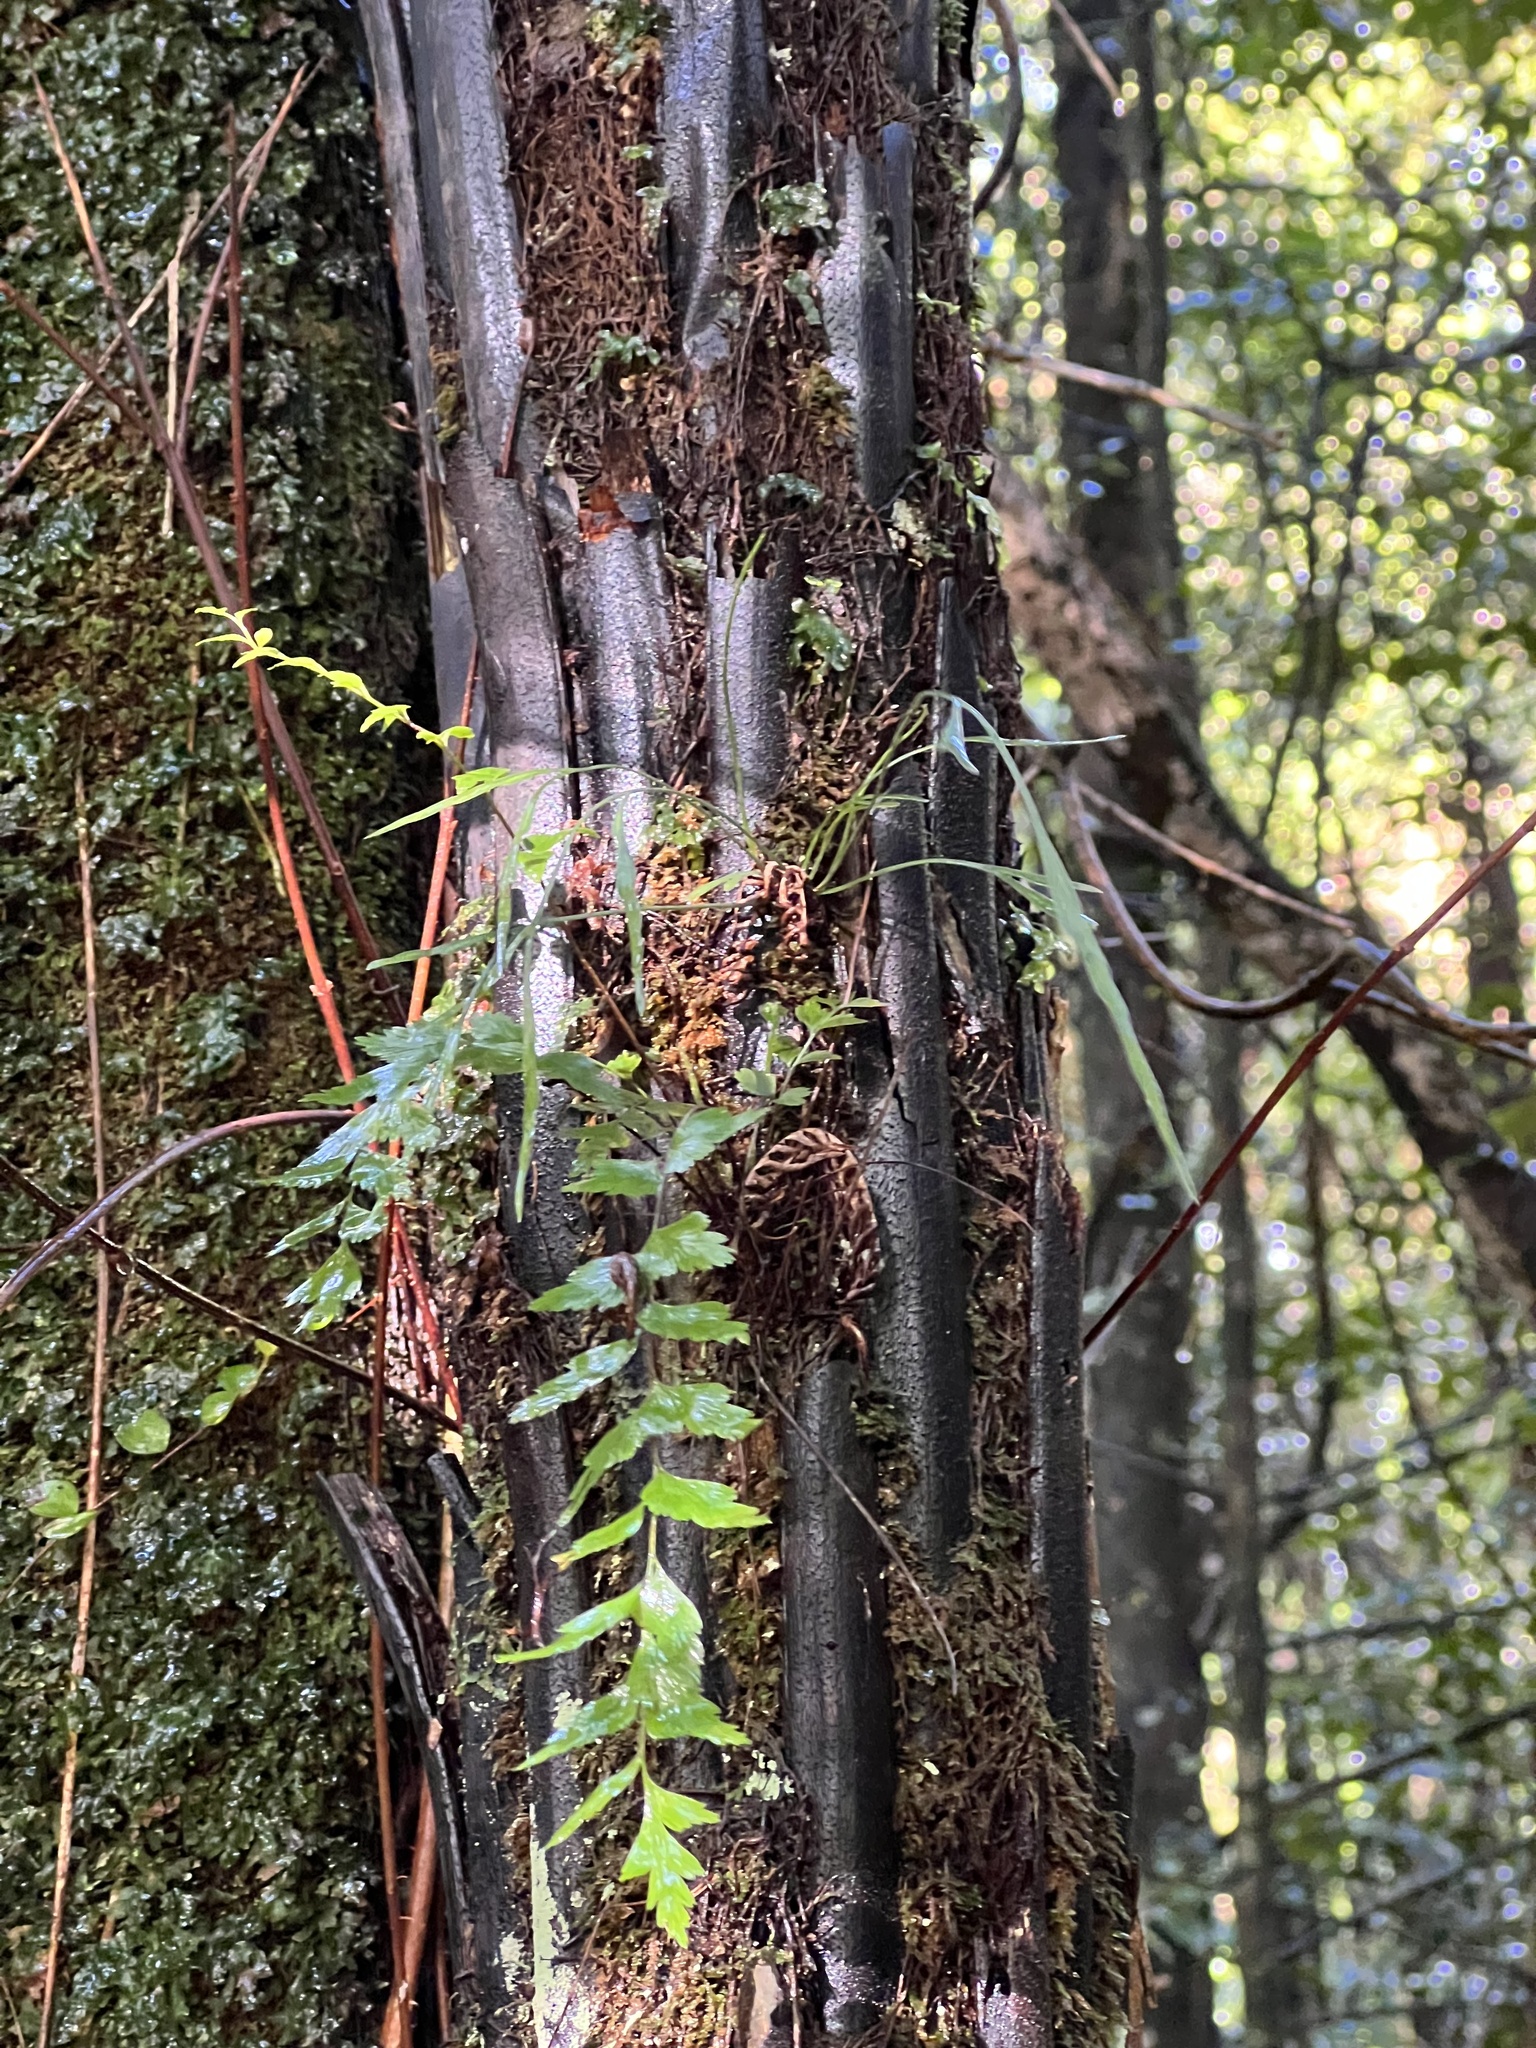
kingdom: Plantae
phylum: Tracheophyta
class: Polypodiopsida
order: Polypodiales
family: Aspleniaceae
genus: Asplenium
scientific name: Asplenium polyodon
